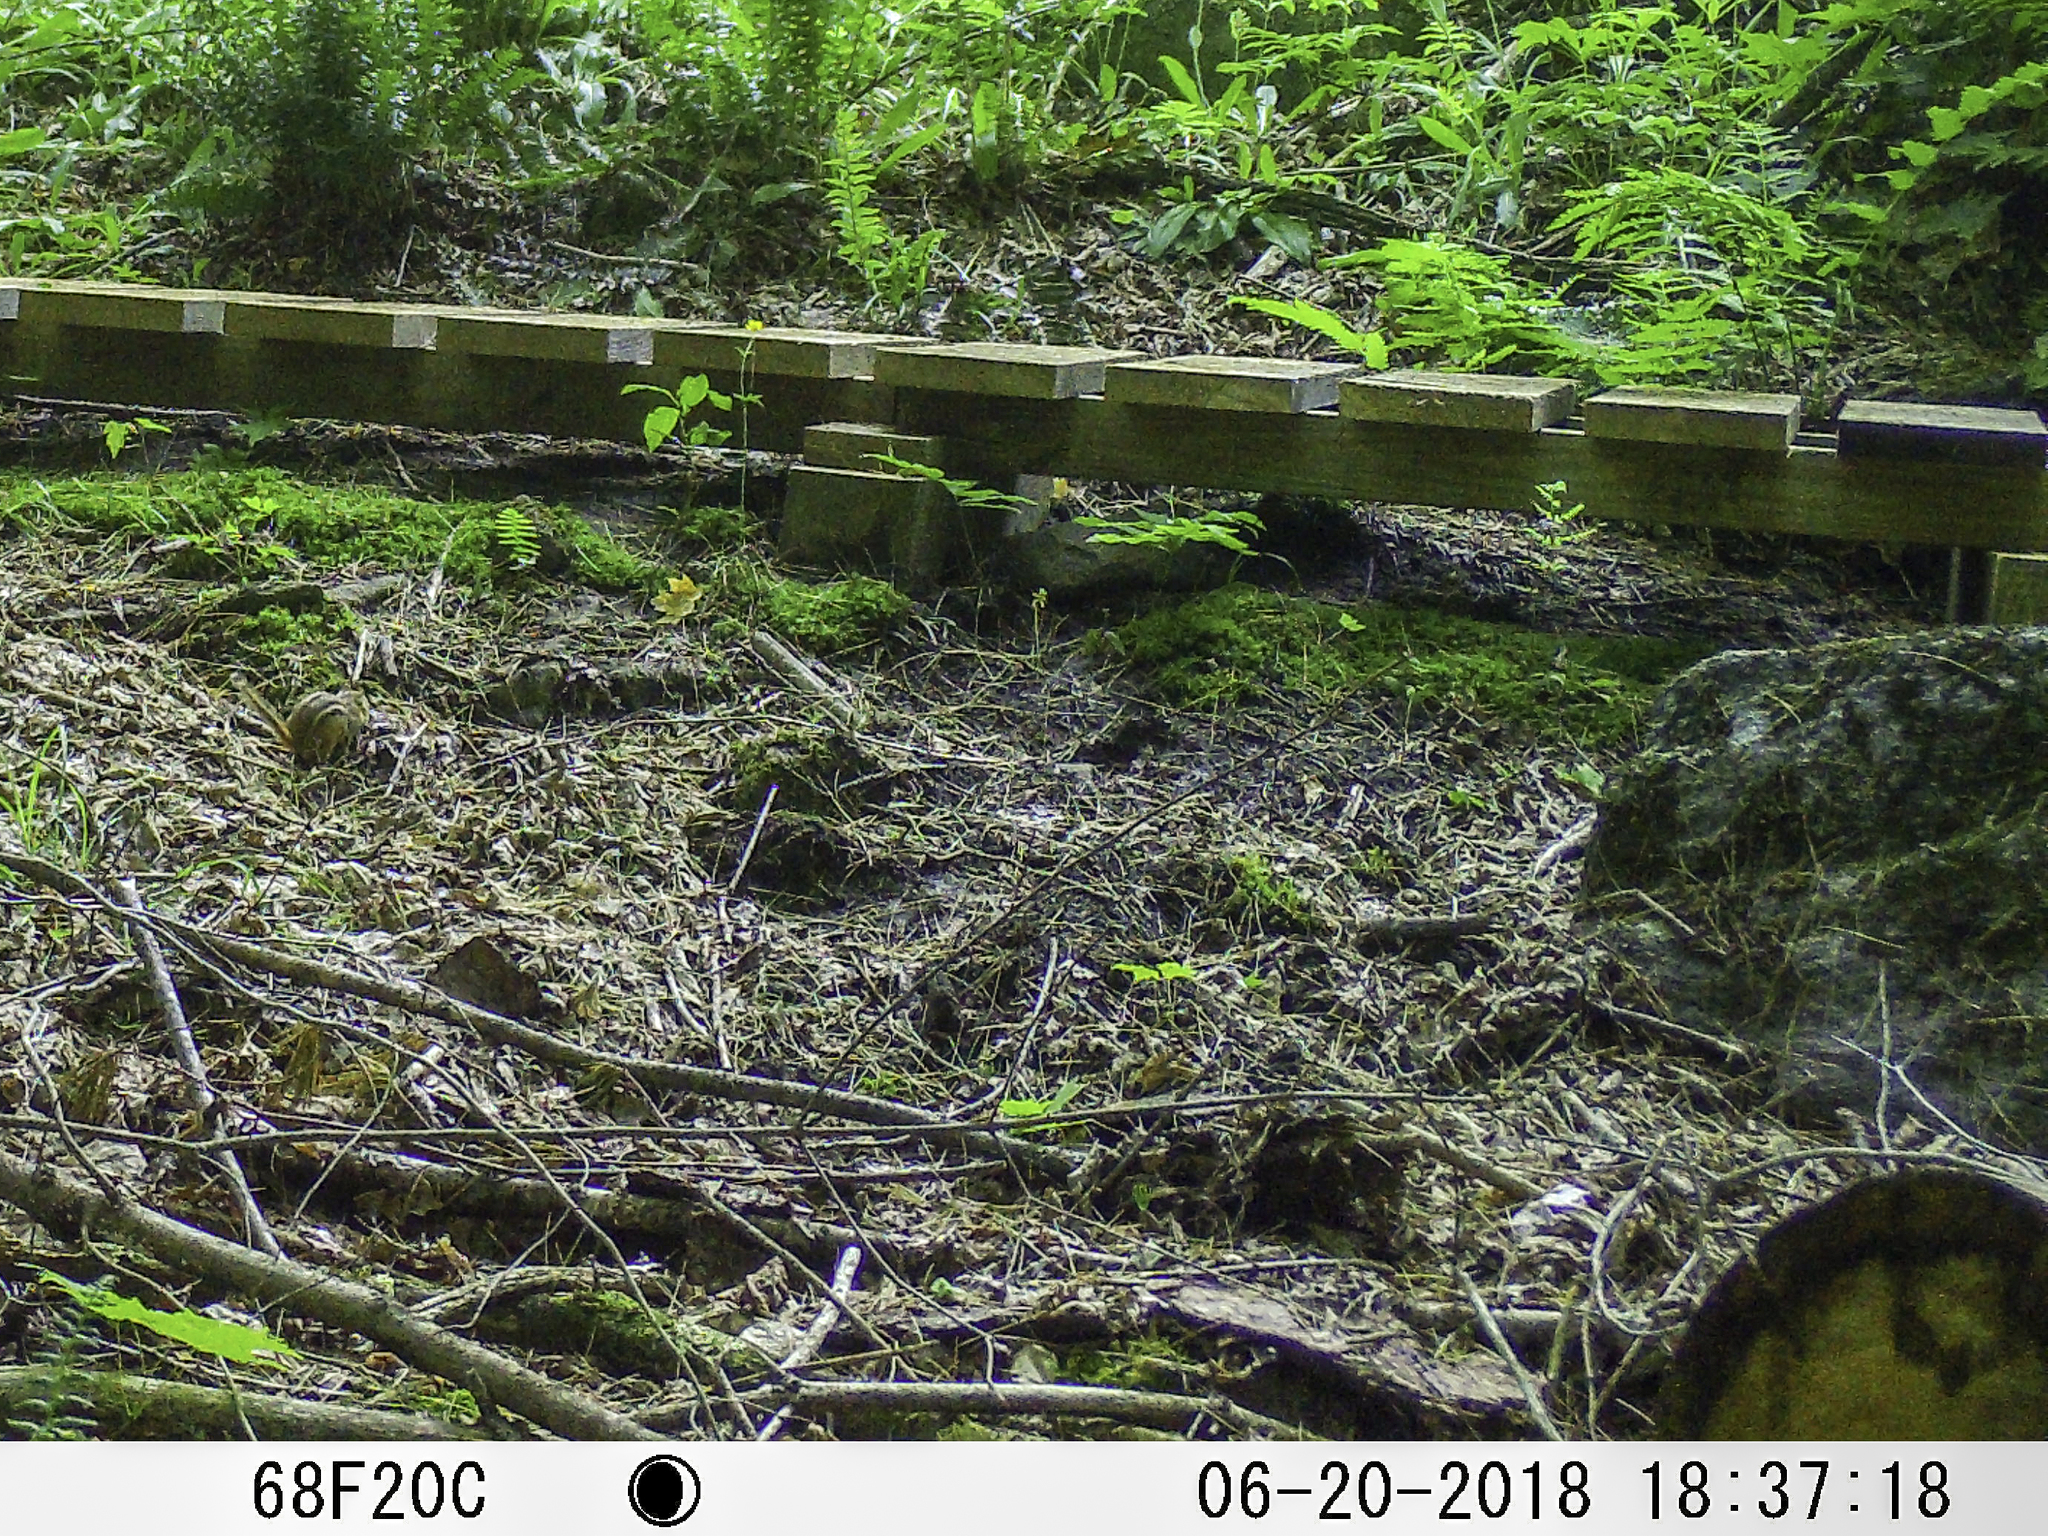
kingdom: Animalia
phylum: Chordata
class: Mammalia
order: Rodentia
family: Sciuridae
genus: Tamias
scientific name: Tamias striatus
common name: Eastern chipmunk
